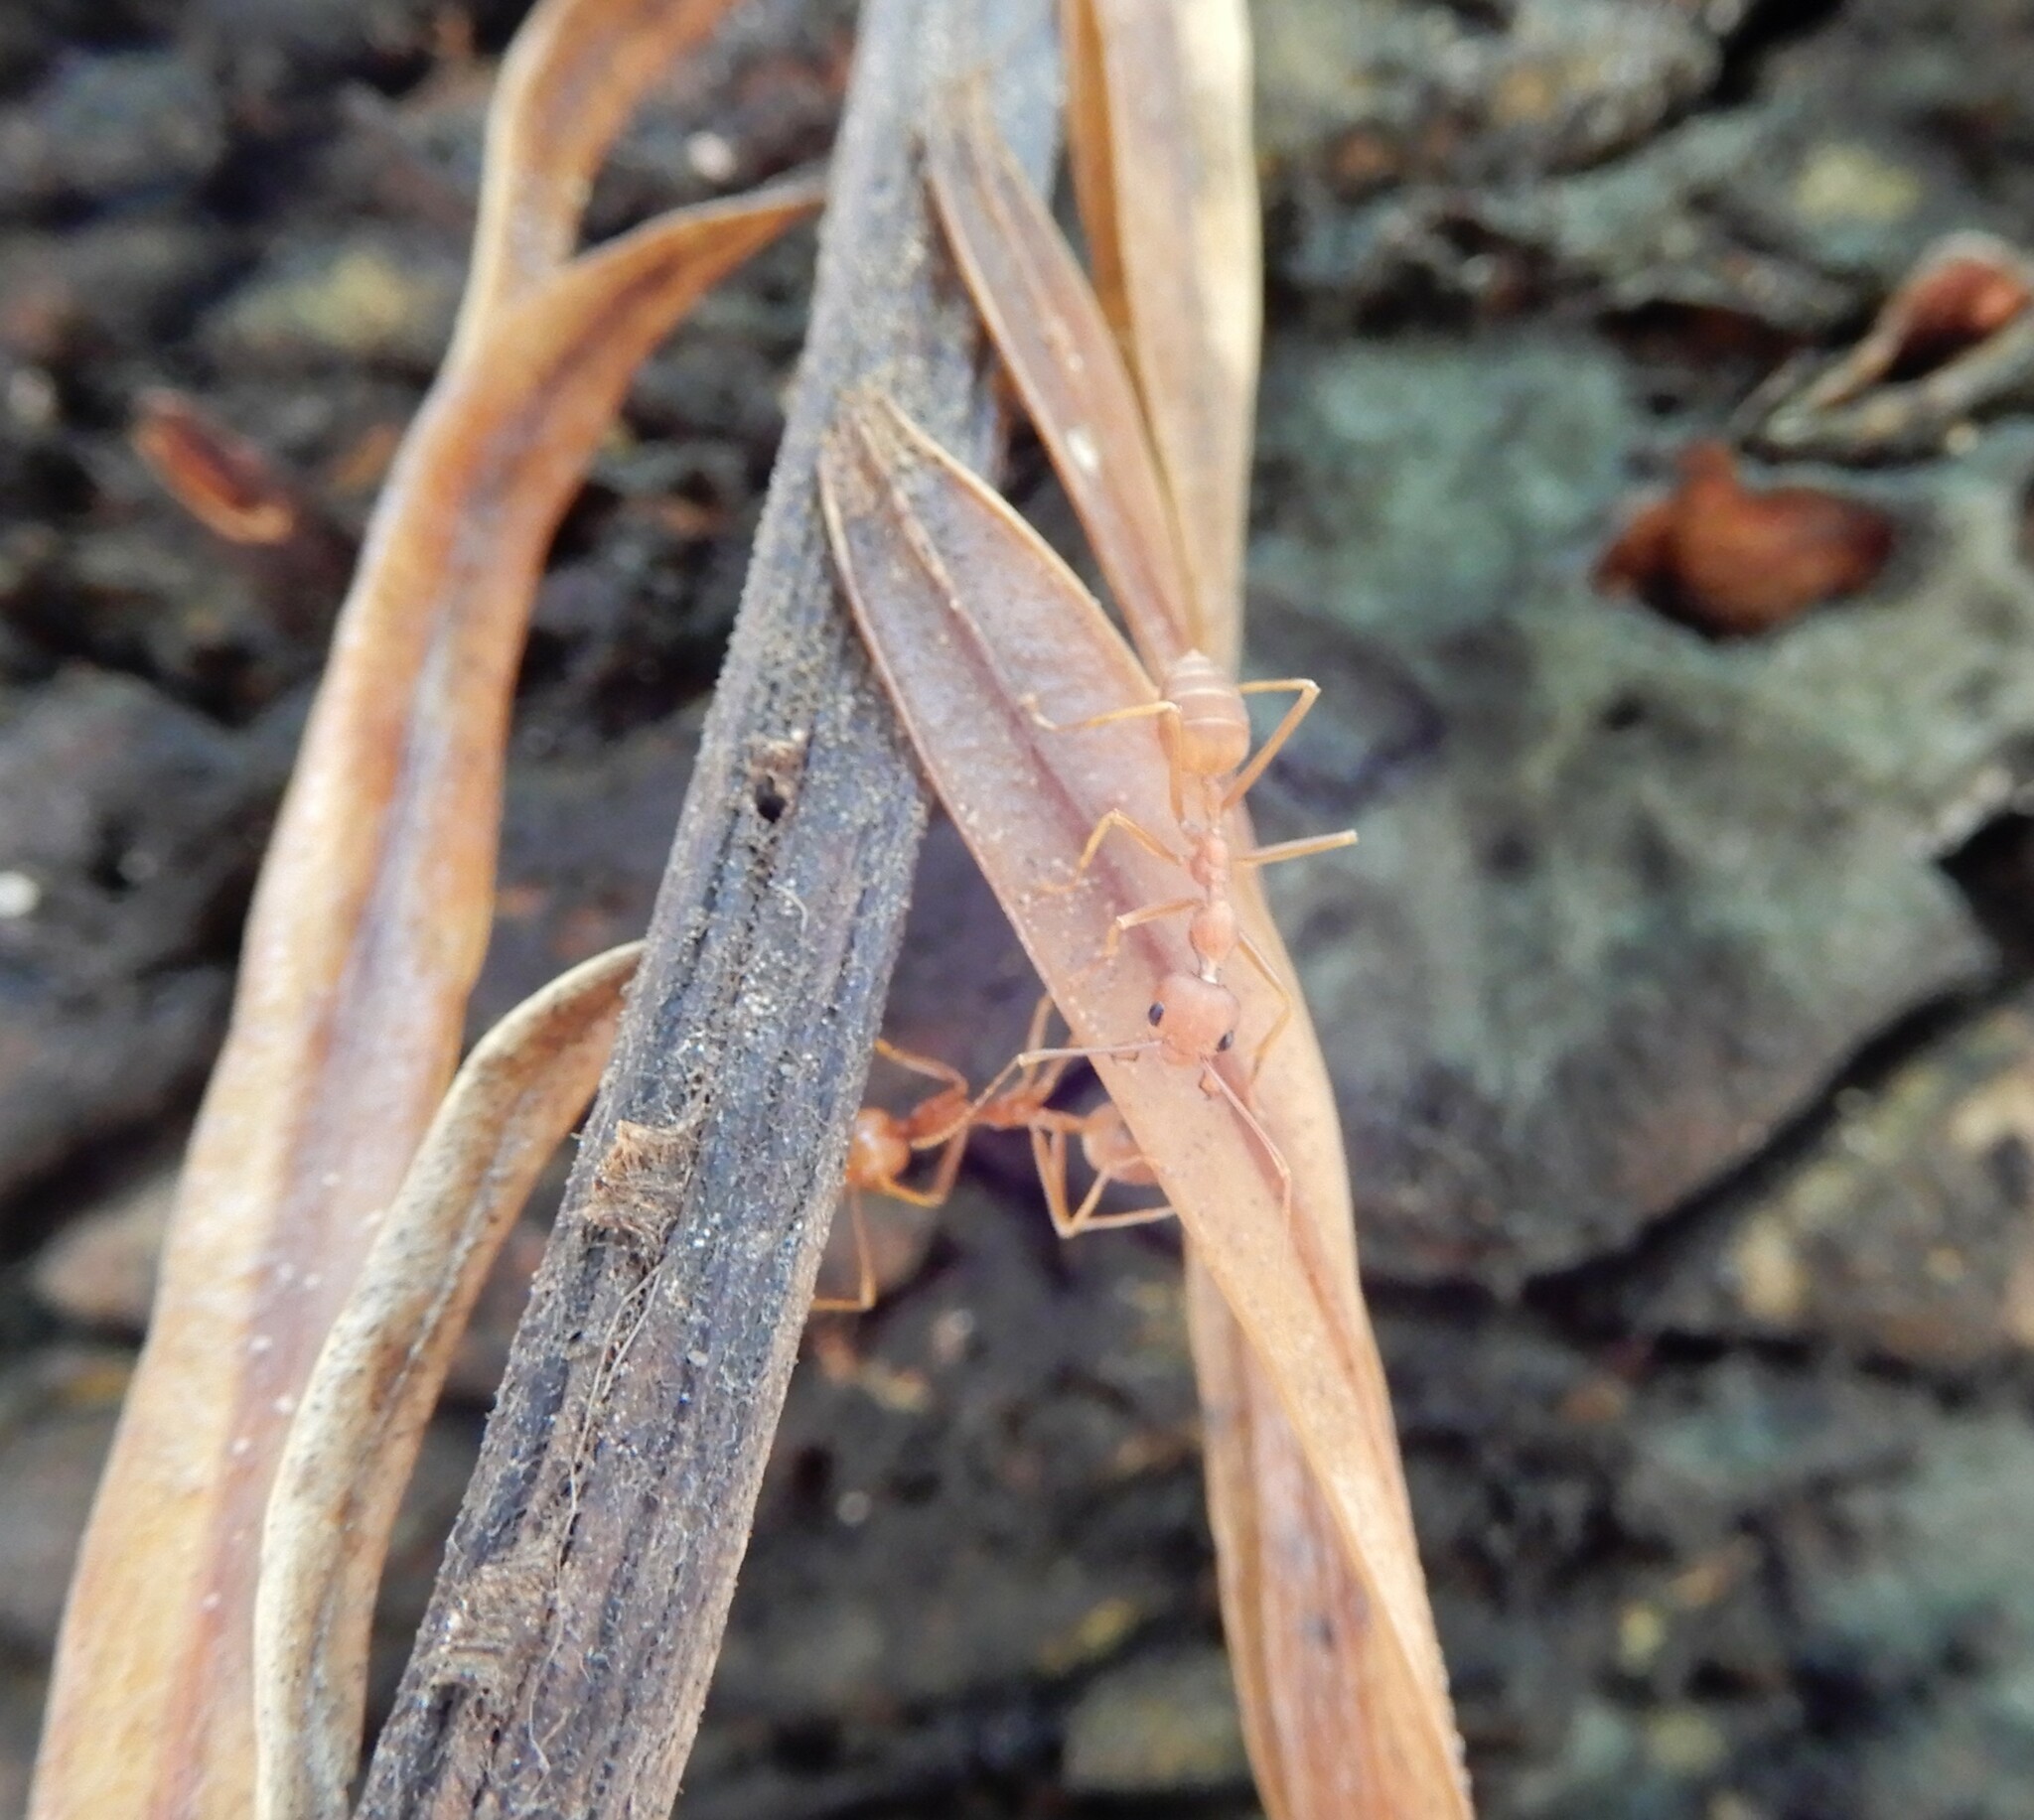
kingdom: Animalia
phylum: Arthropoda
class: Insecta
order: Hymenoptera
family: Formicidae
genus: Oecophylla
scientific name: Oecophylla smaragdina
